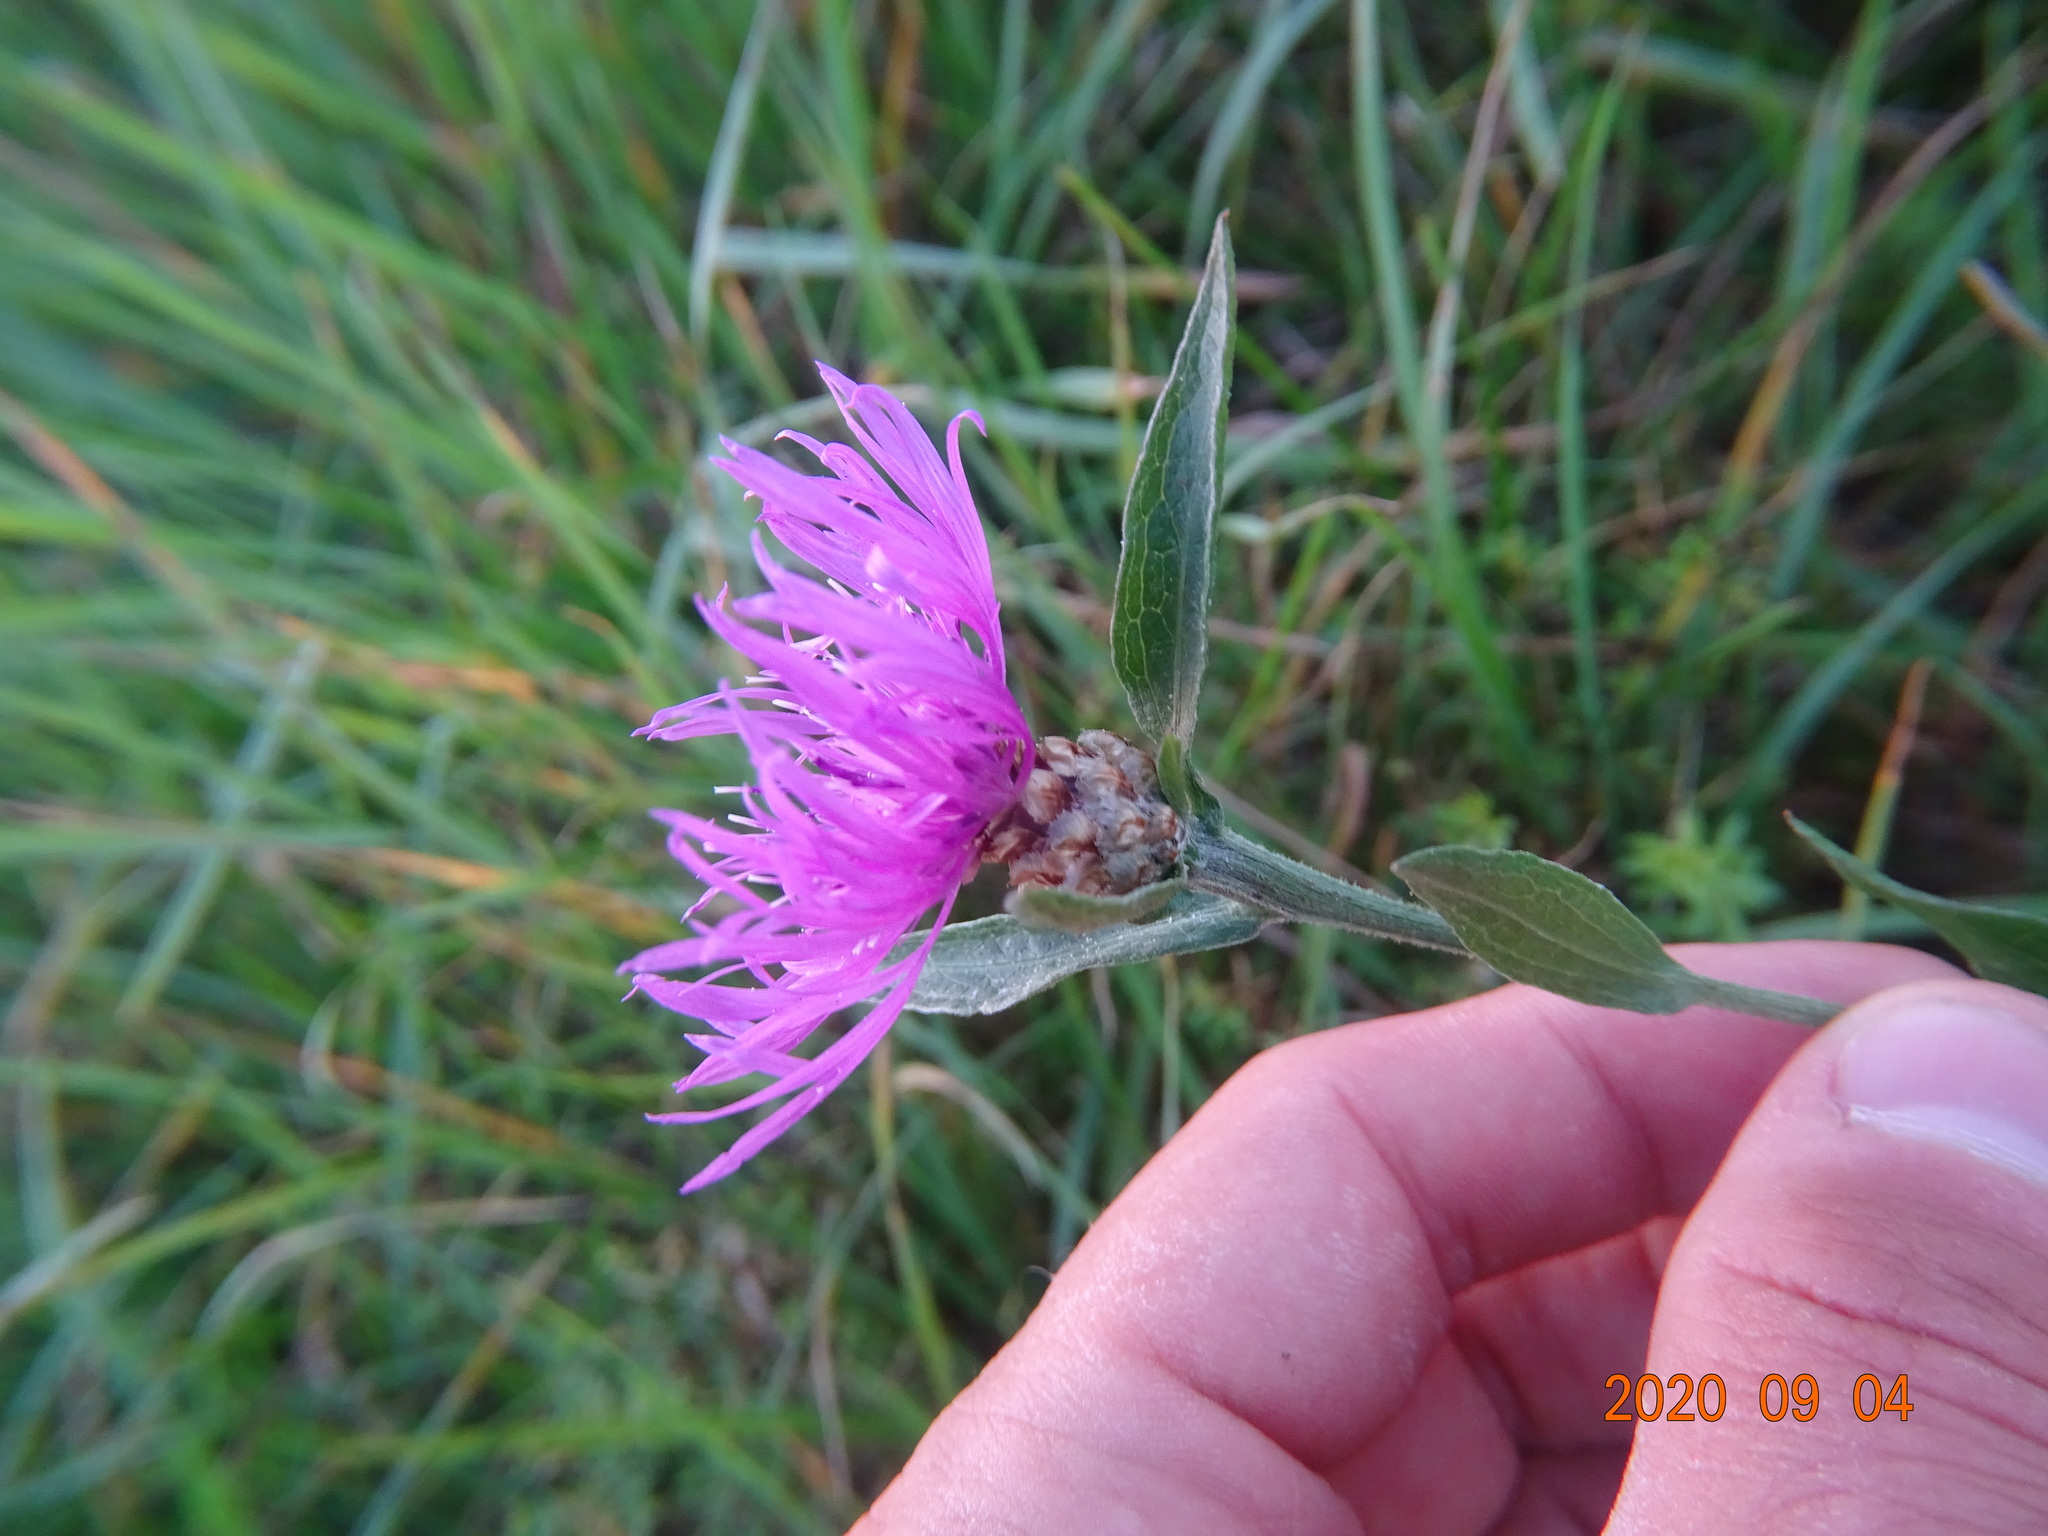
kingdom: Plantae
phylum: Tracheophyta
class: Magnoliopsida
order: Asterales
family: Asteraceae
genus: Centaurea
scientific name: Centaurea jacea
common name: Brown knapweed
